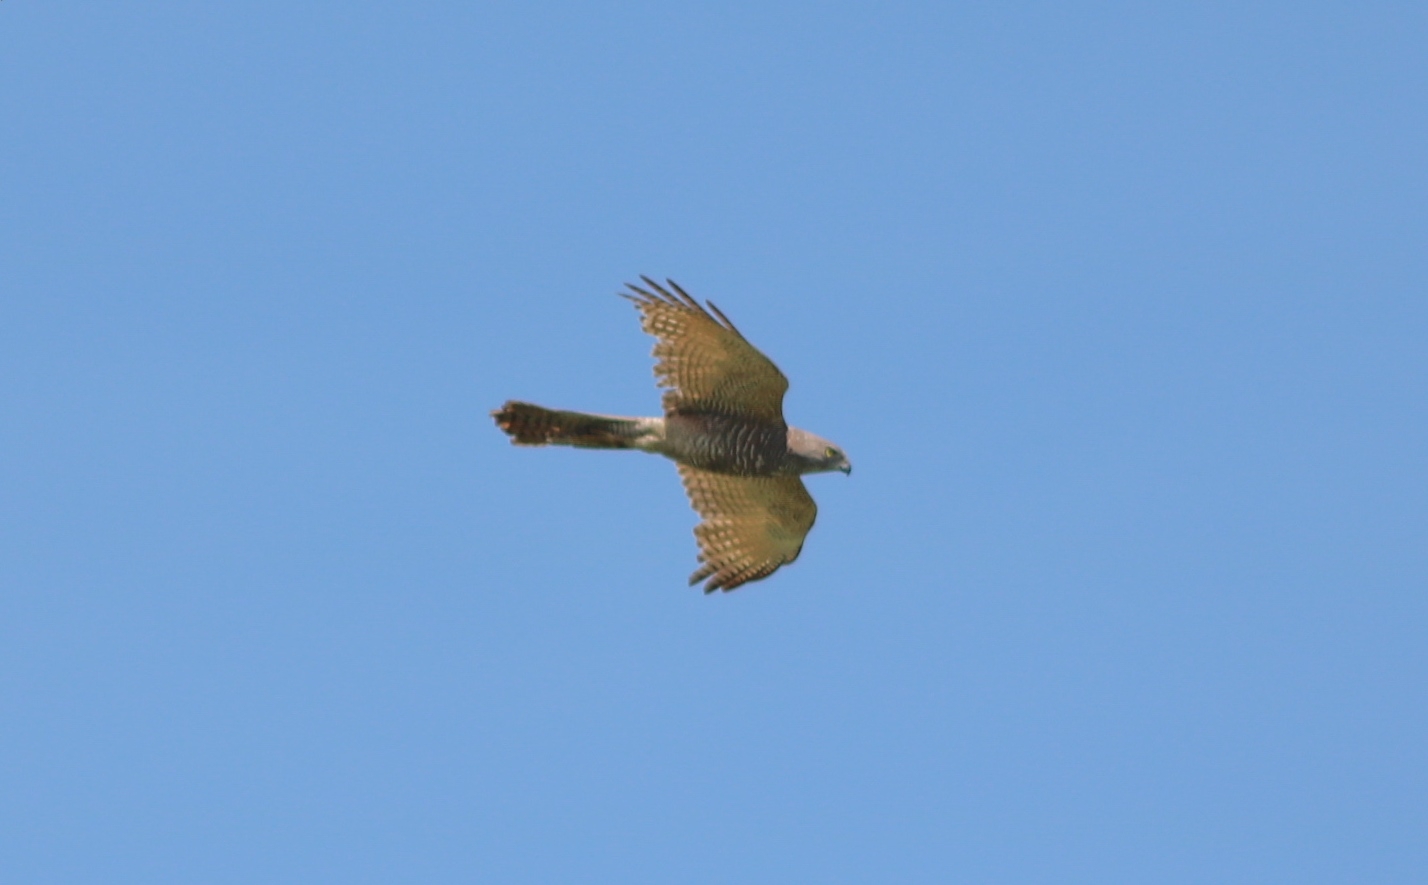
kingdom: Animalia
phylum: Chordata
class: Aves
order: Accipitriformes
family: Accipitridae
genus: Accipiter
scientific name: Accipiter fasciatus
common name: Brown goshawk
